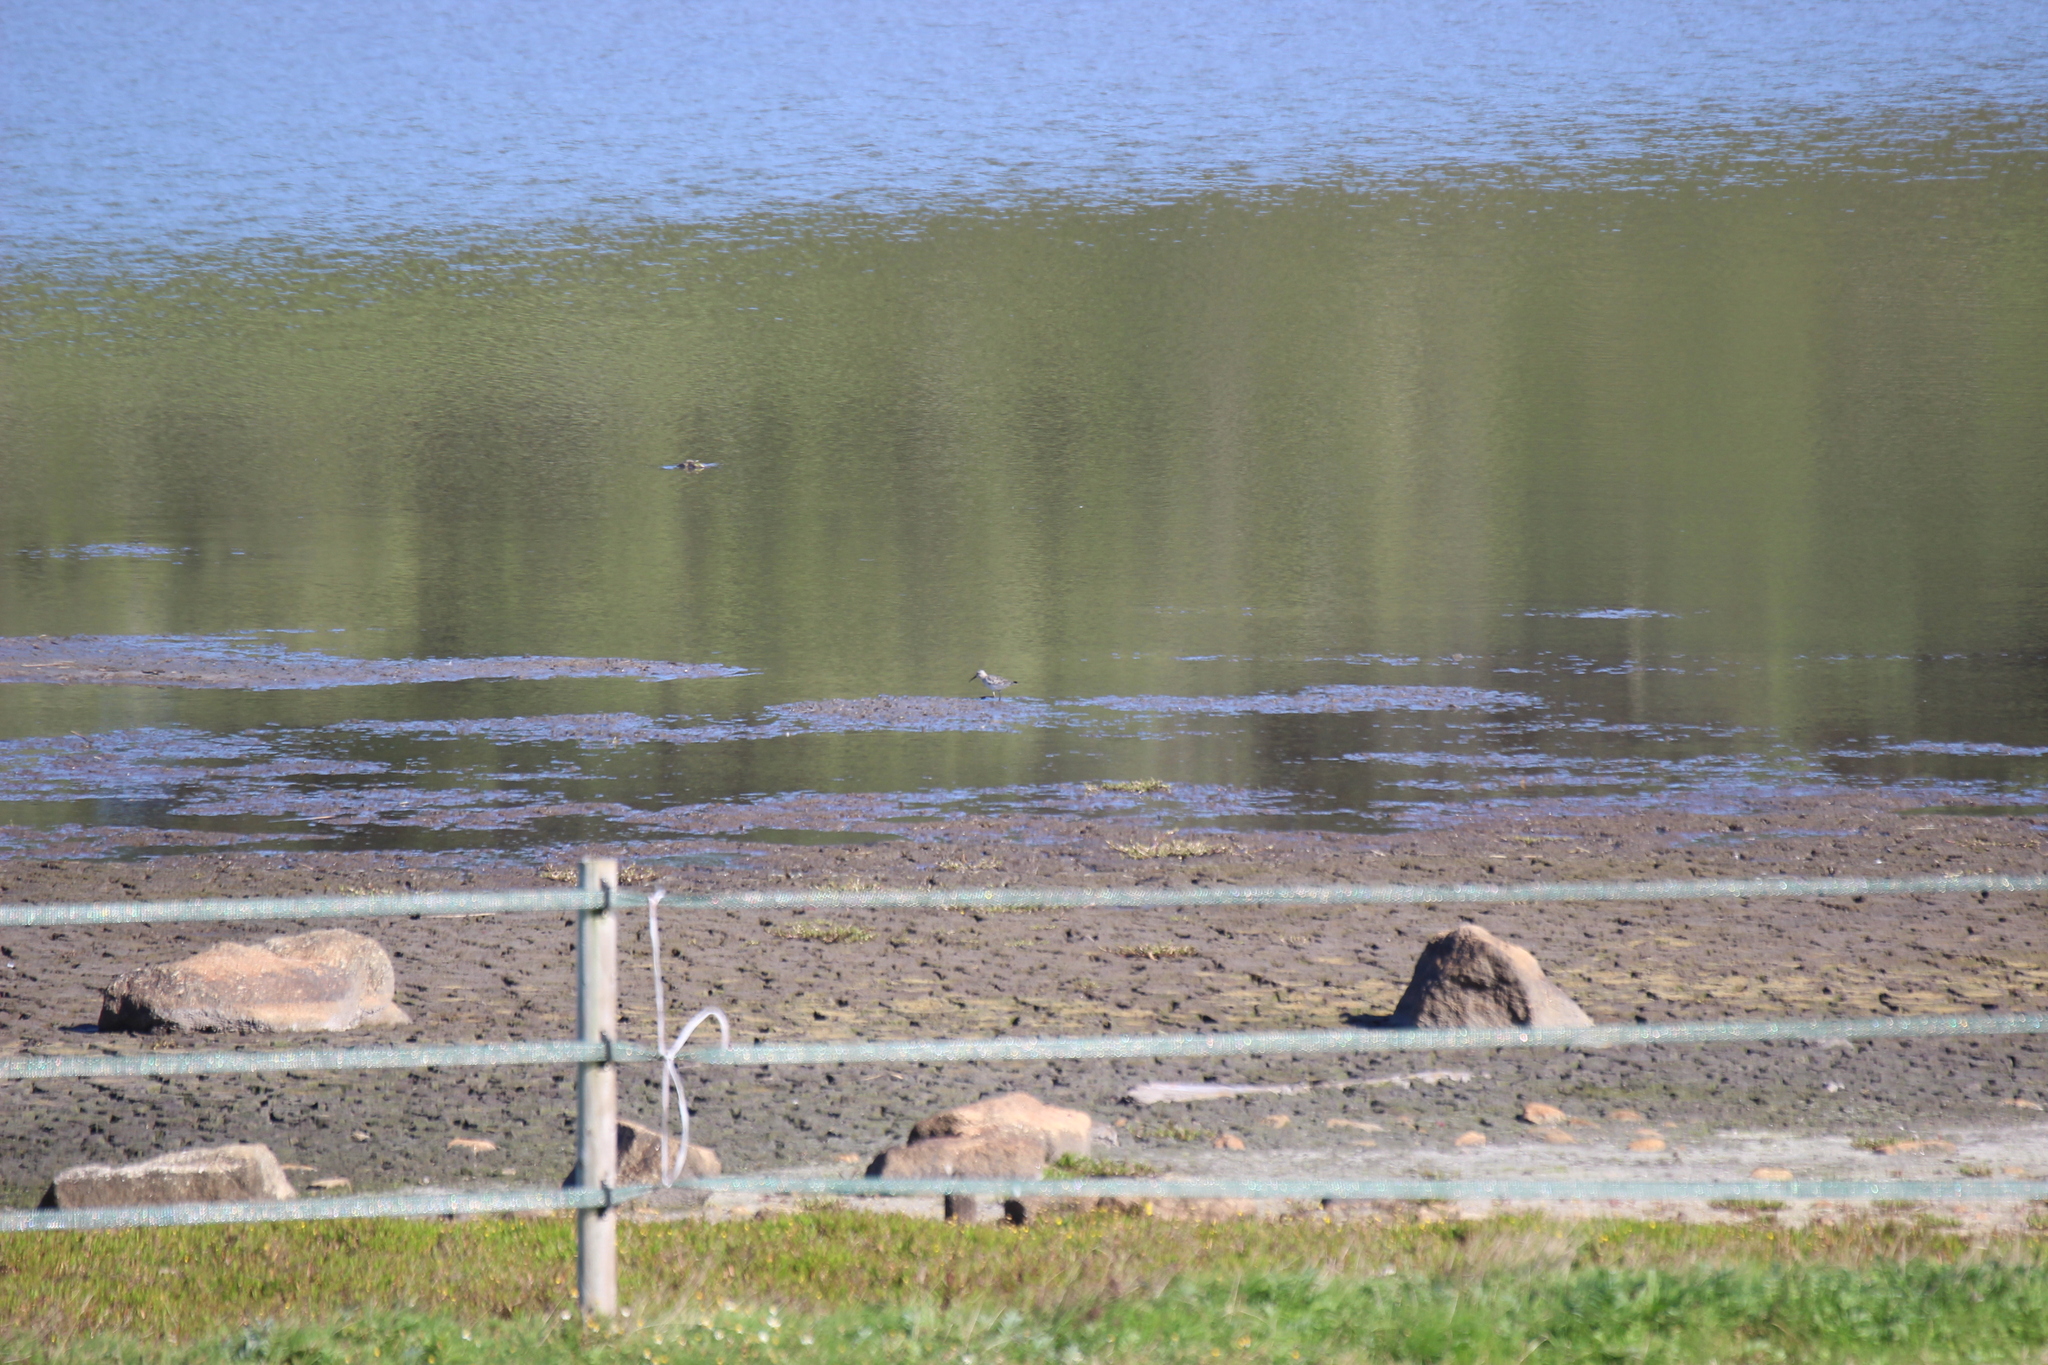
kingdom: Animalia
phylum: Chordata
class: Aves
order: Charadriiformes
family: Scolopacidae
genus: Calidris
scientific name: Calidris ferruginea
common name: Curlew sandpiper
